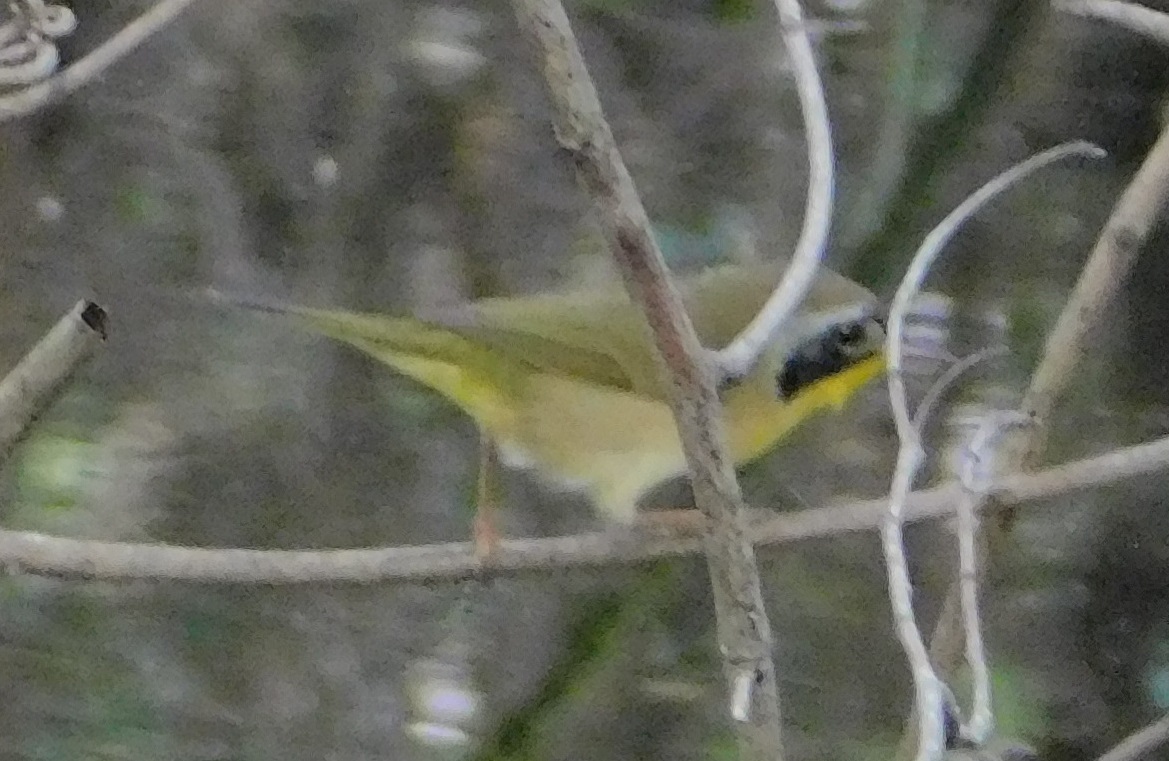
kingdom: Animalia
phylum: Chordata
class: Aves
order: Passeriformes
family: Parulidae
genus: Geothlypis
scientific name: Geothlypis trichas
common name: Common yellowthroat
